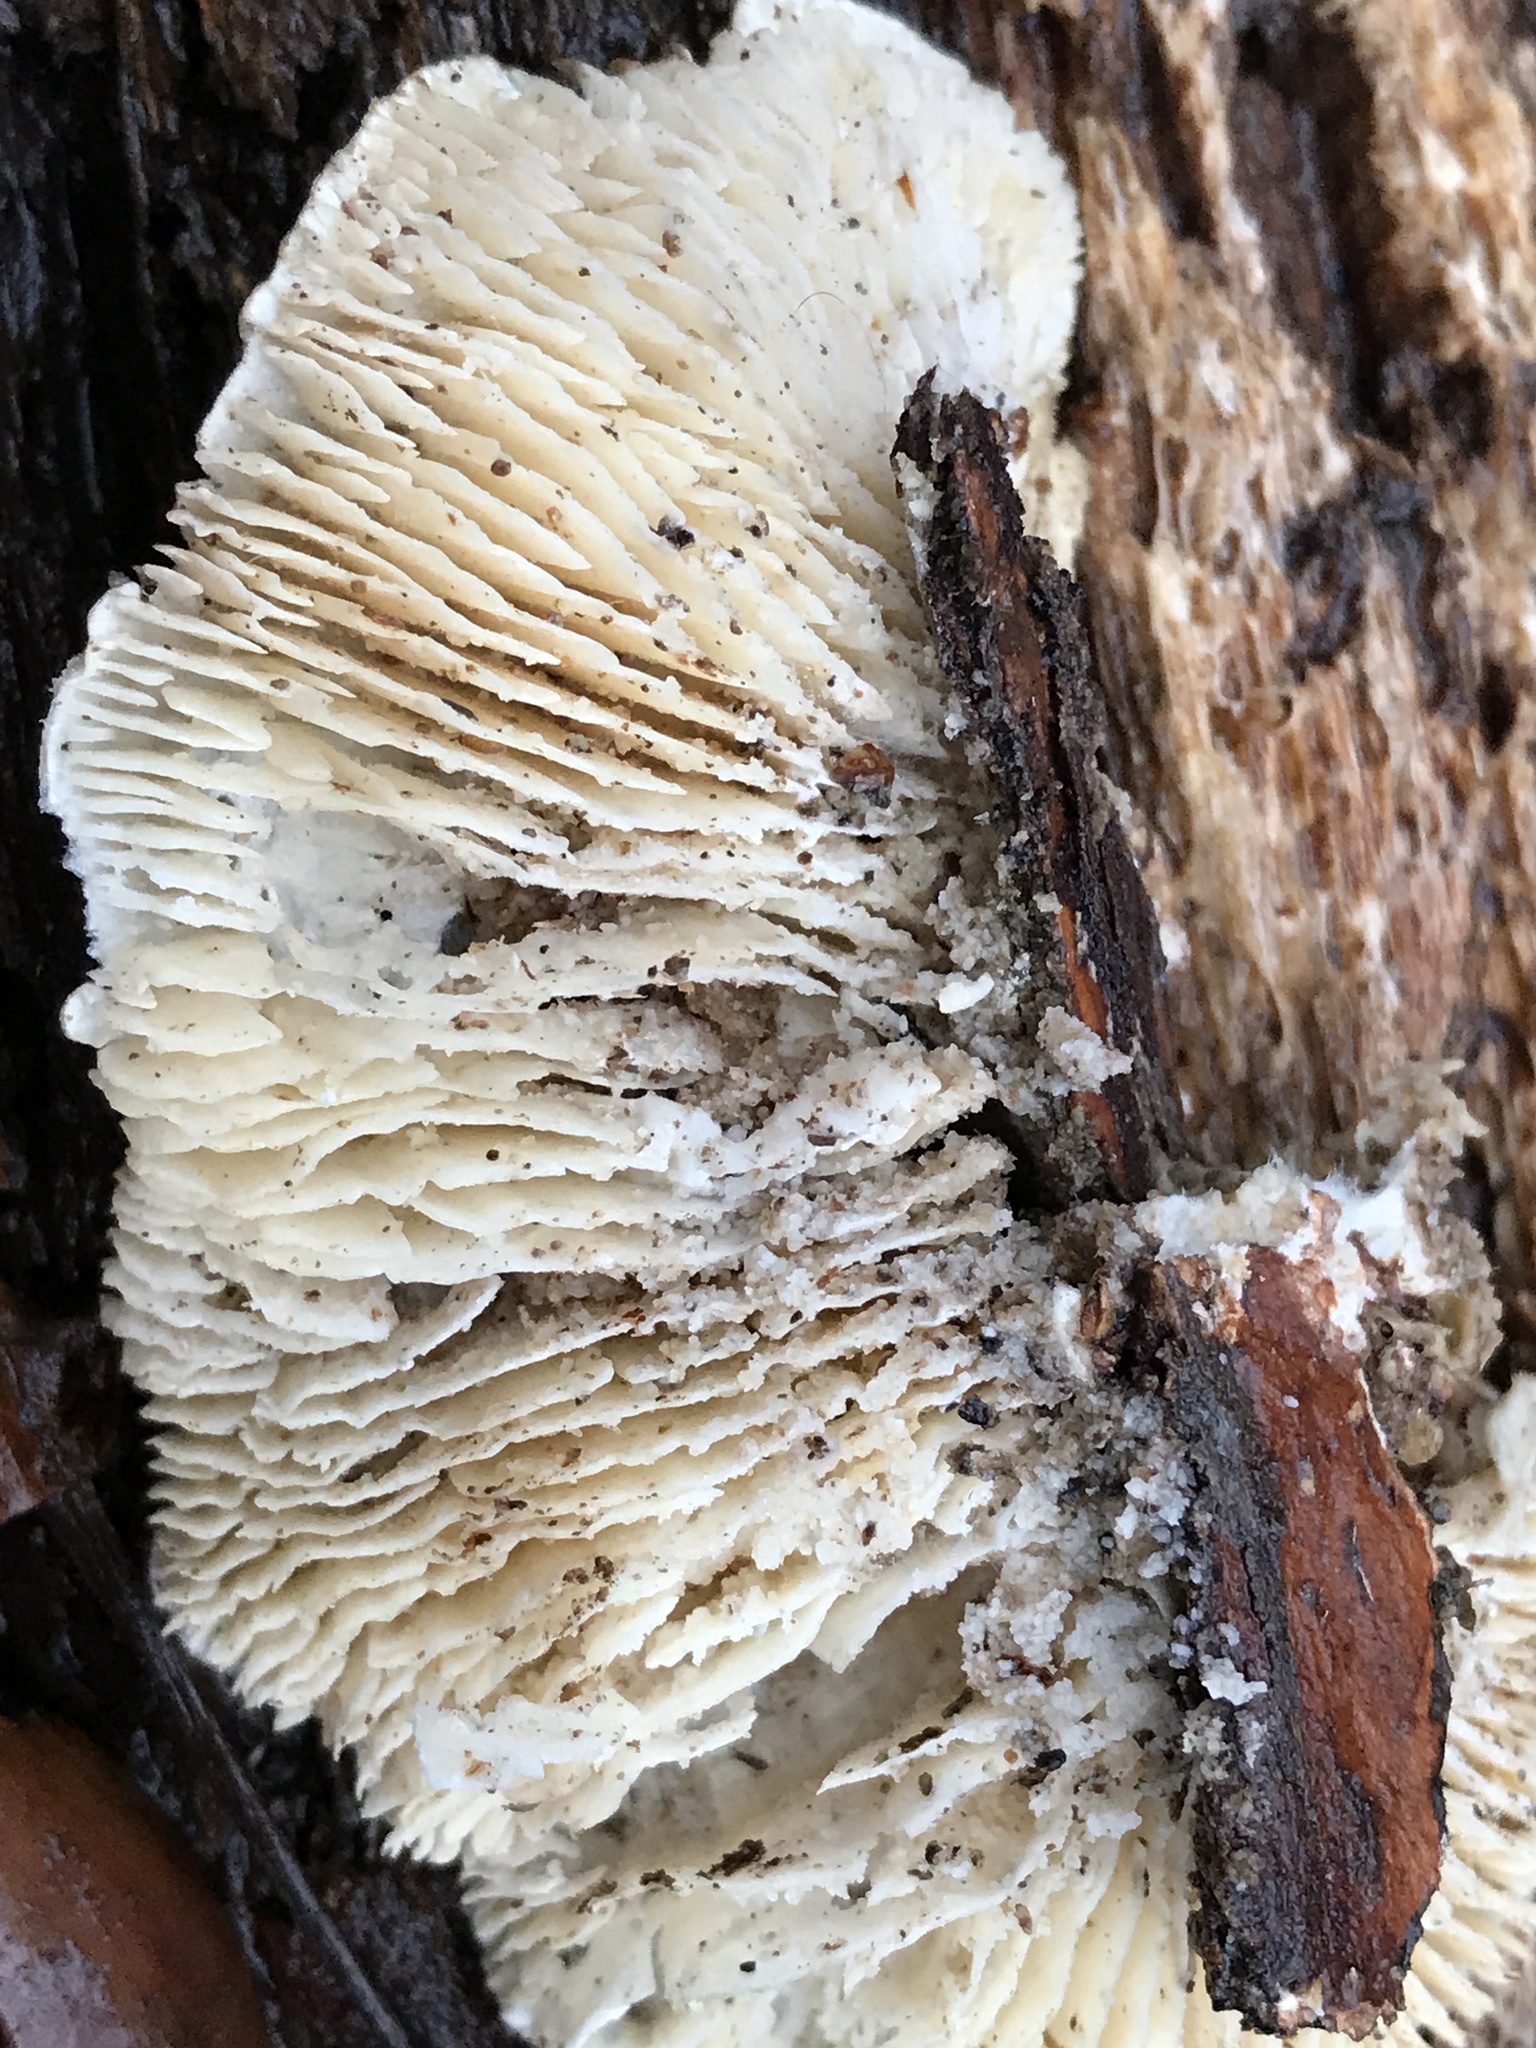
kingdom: Fungi
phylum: Basidiomycota
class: Agaricomycetes
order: Polyporales
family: Polyporaceae
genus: Lenzites
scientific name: Lenzites betulinus
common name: Birch mazegill
